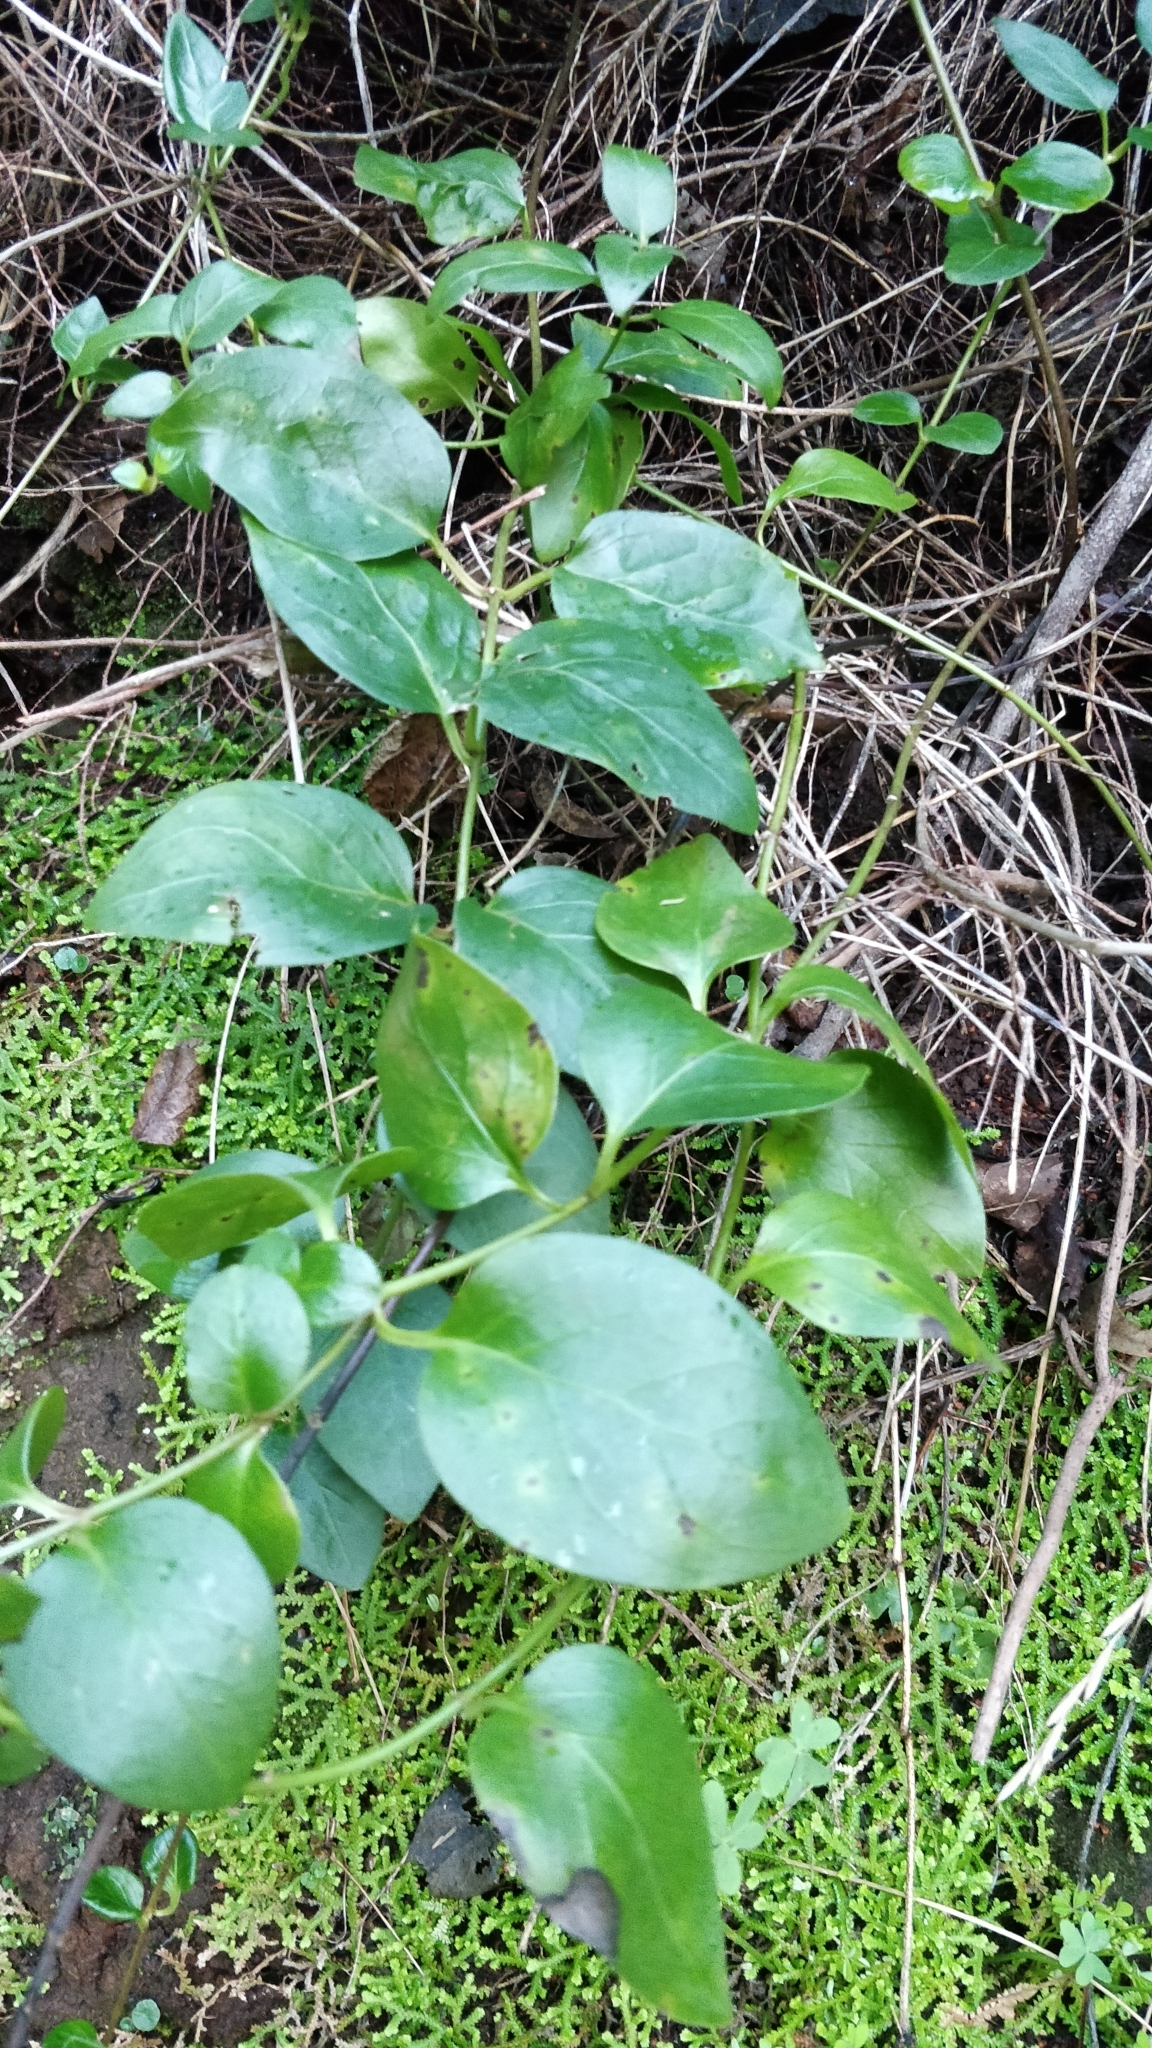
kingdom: Plantae
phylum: Tracheophyta
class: Magnoliopsida
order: Gentianales
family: Apocynaceae
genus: Vinca
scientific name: Vinca major
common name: Greater periwinkle
